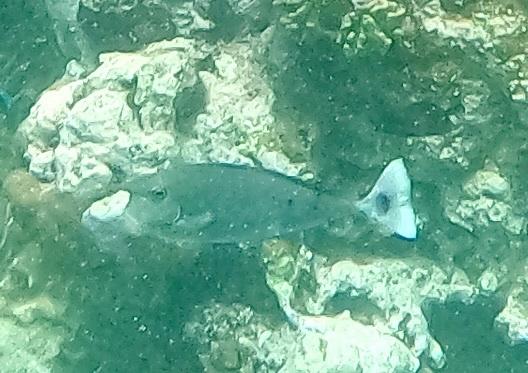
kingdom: Animalia
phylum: Chordata
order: Perciformes
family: Acanthuridae
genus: Naso
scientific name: Naso brevirostris
